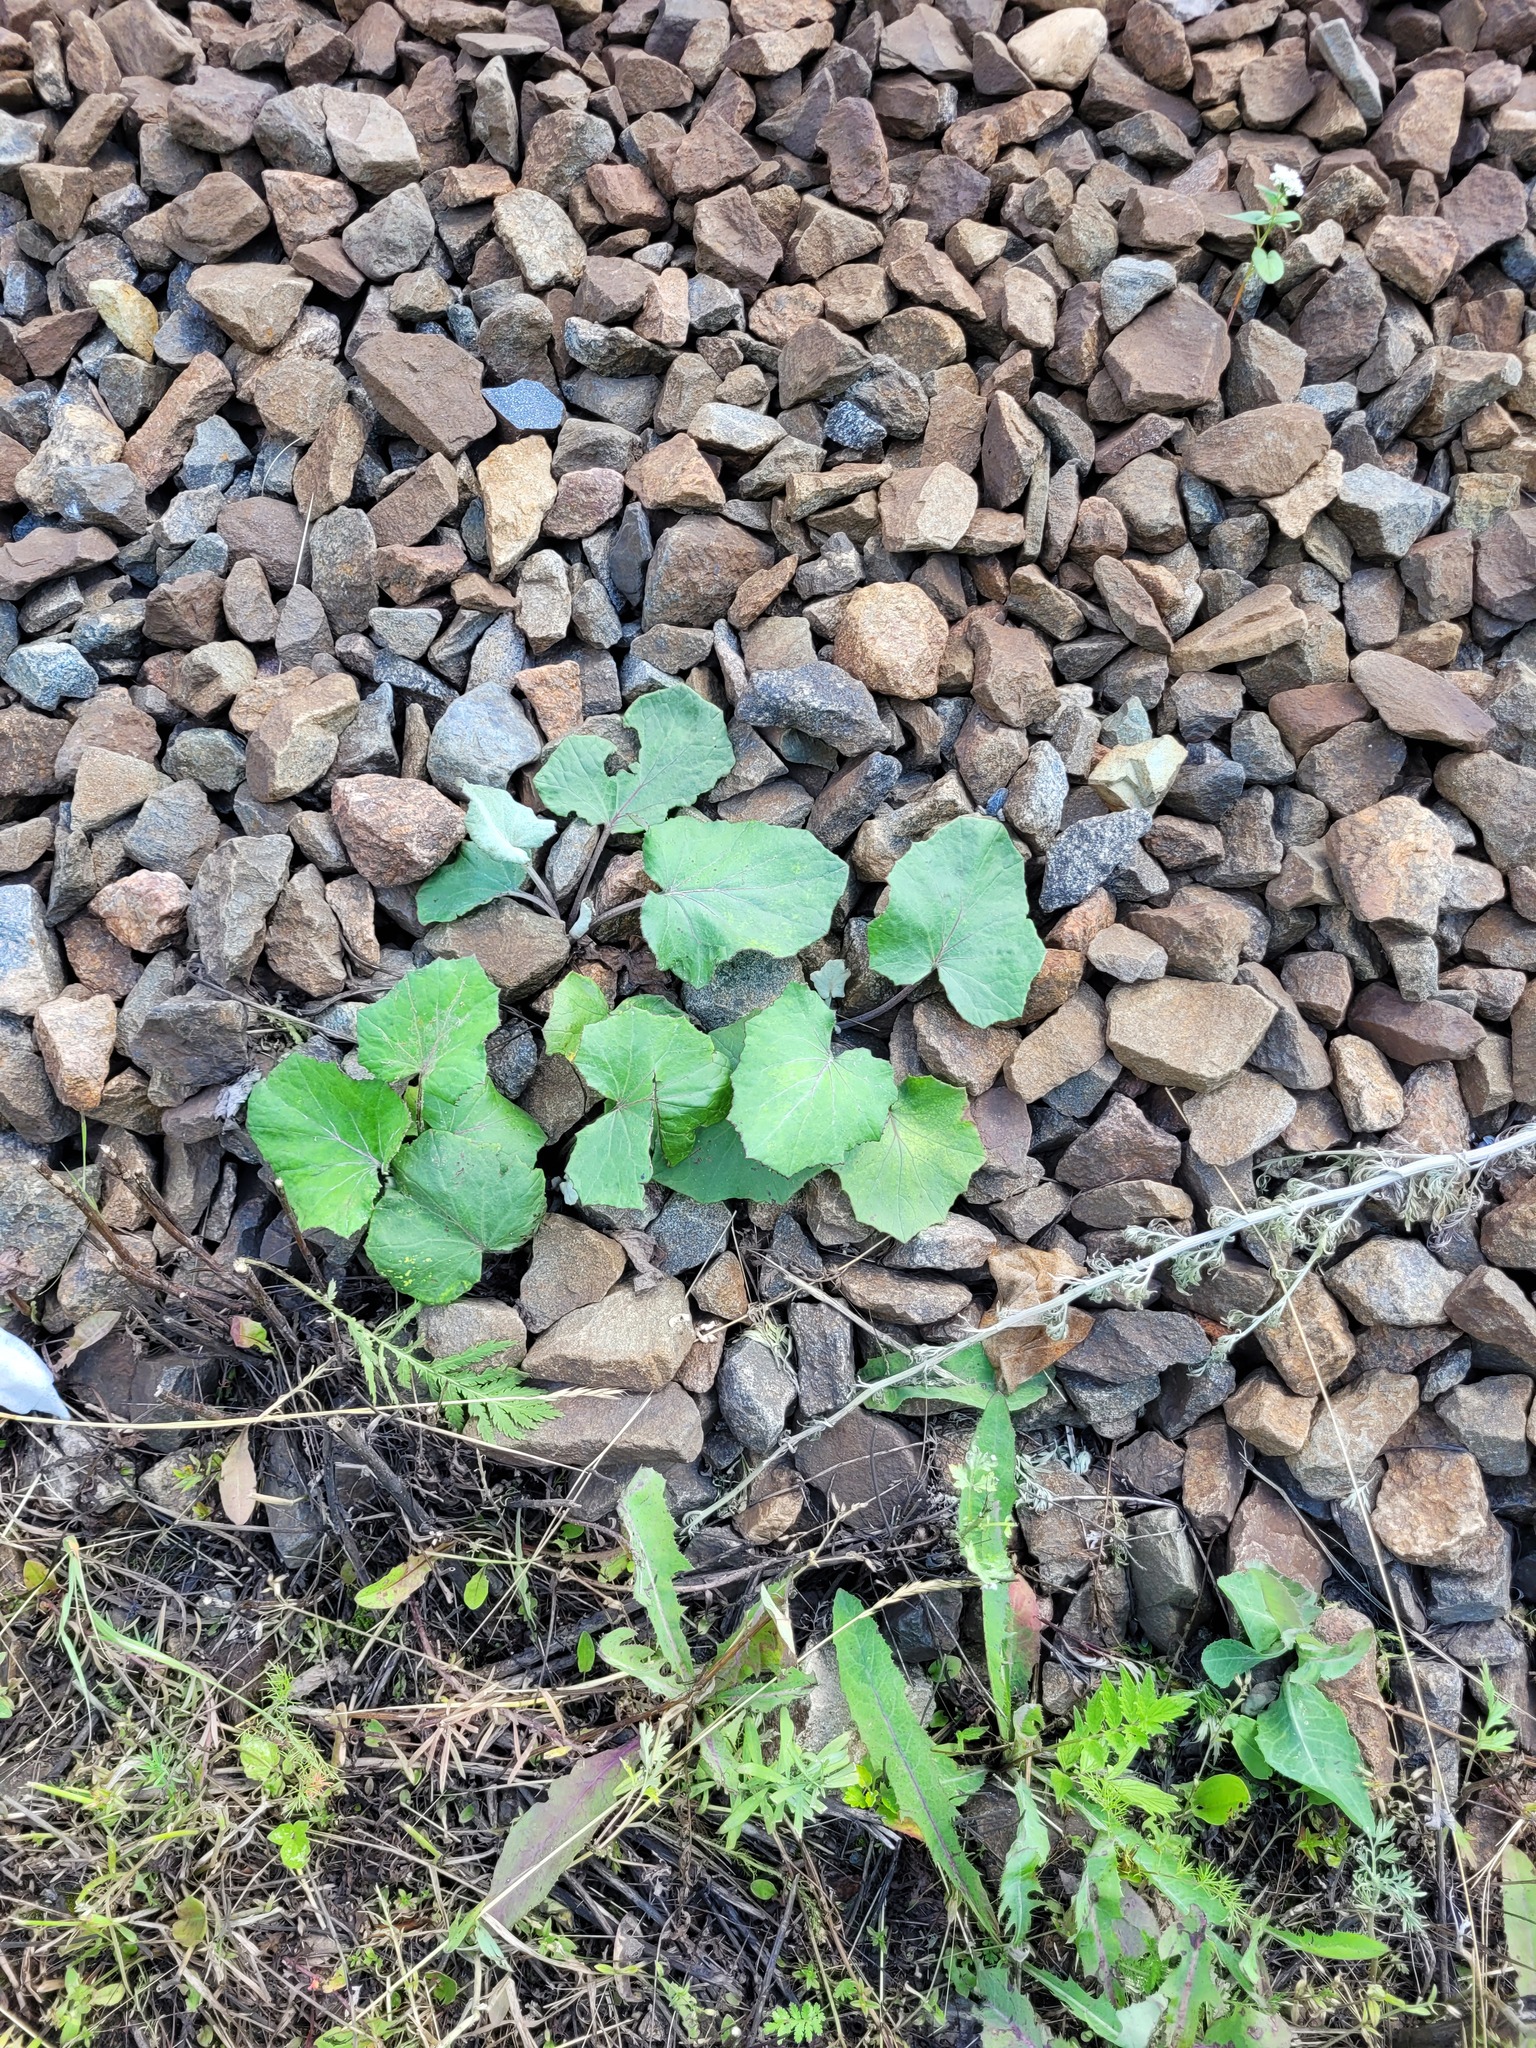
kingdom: Plantae
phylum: Tracheophyta
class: Magnoliopsida
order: Asterales
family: Asteraceae
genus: Tussilago
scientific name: Tussilago farfara
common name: Coltsfoot
